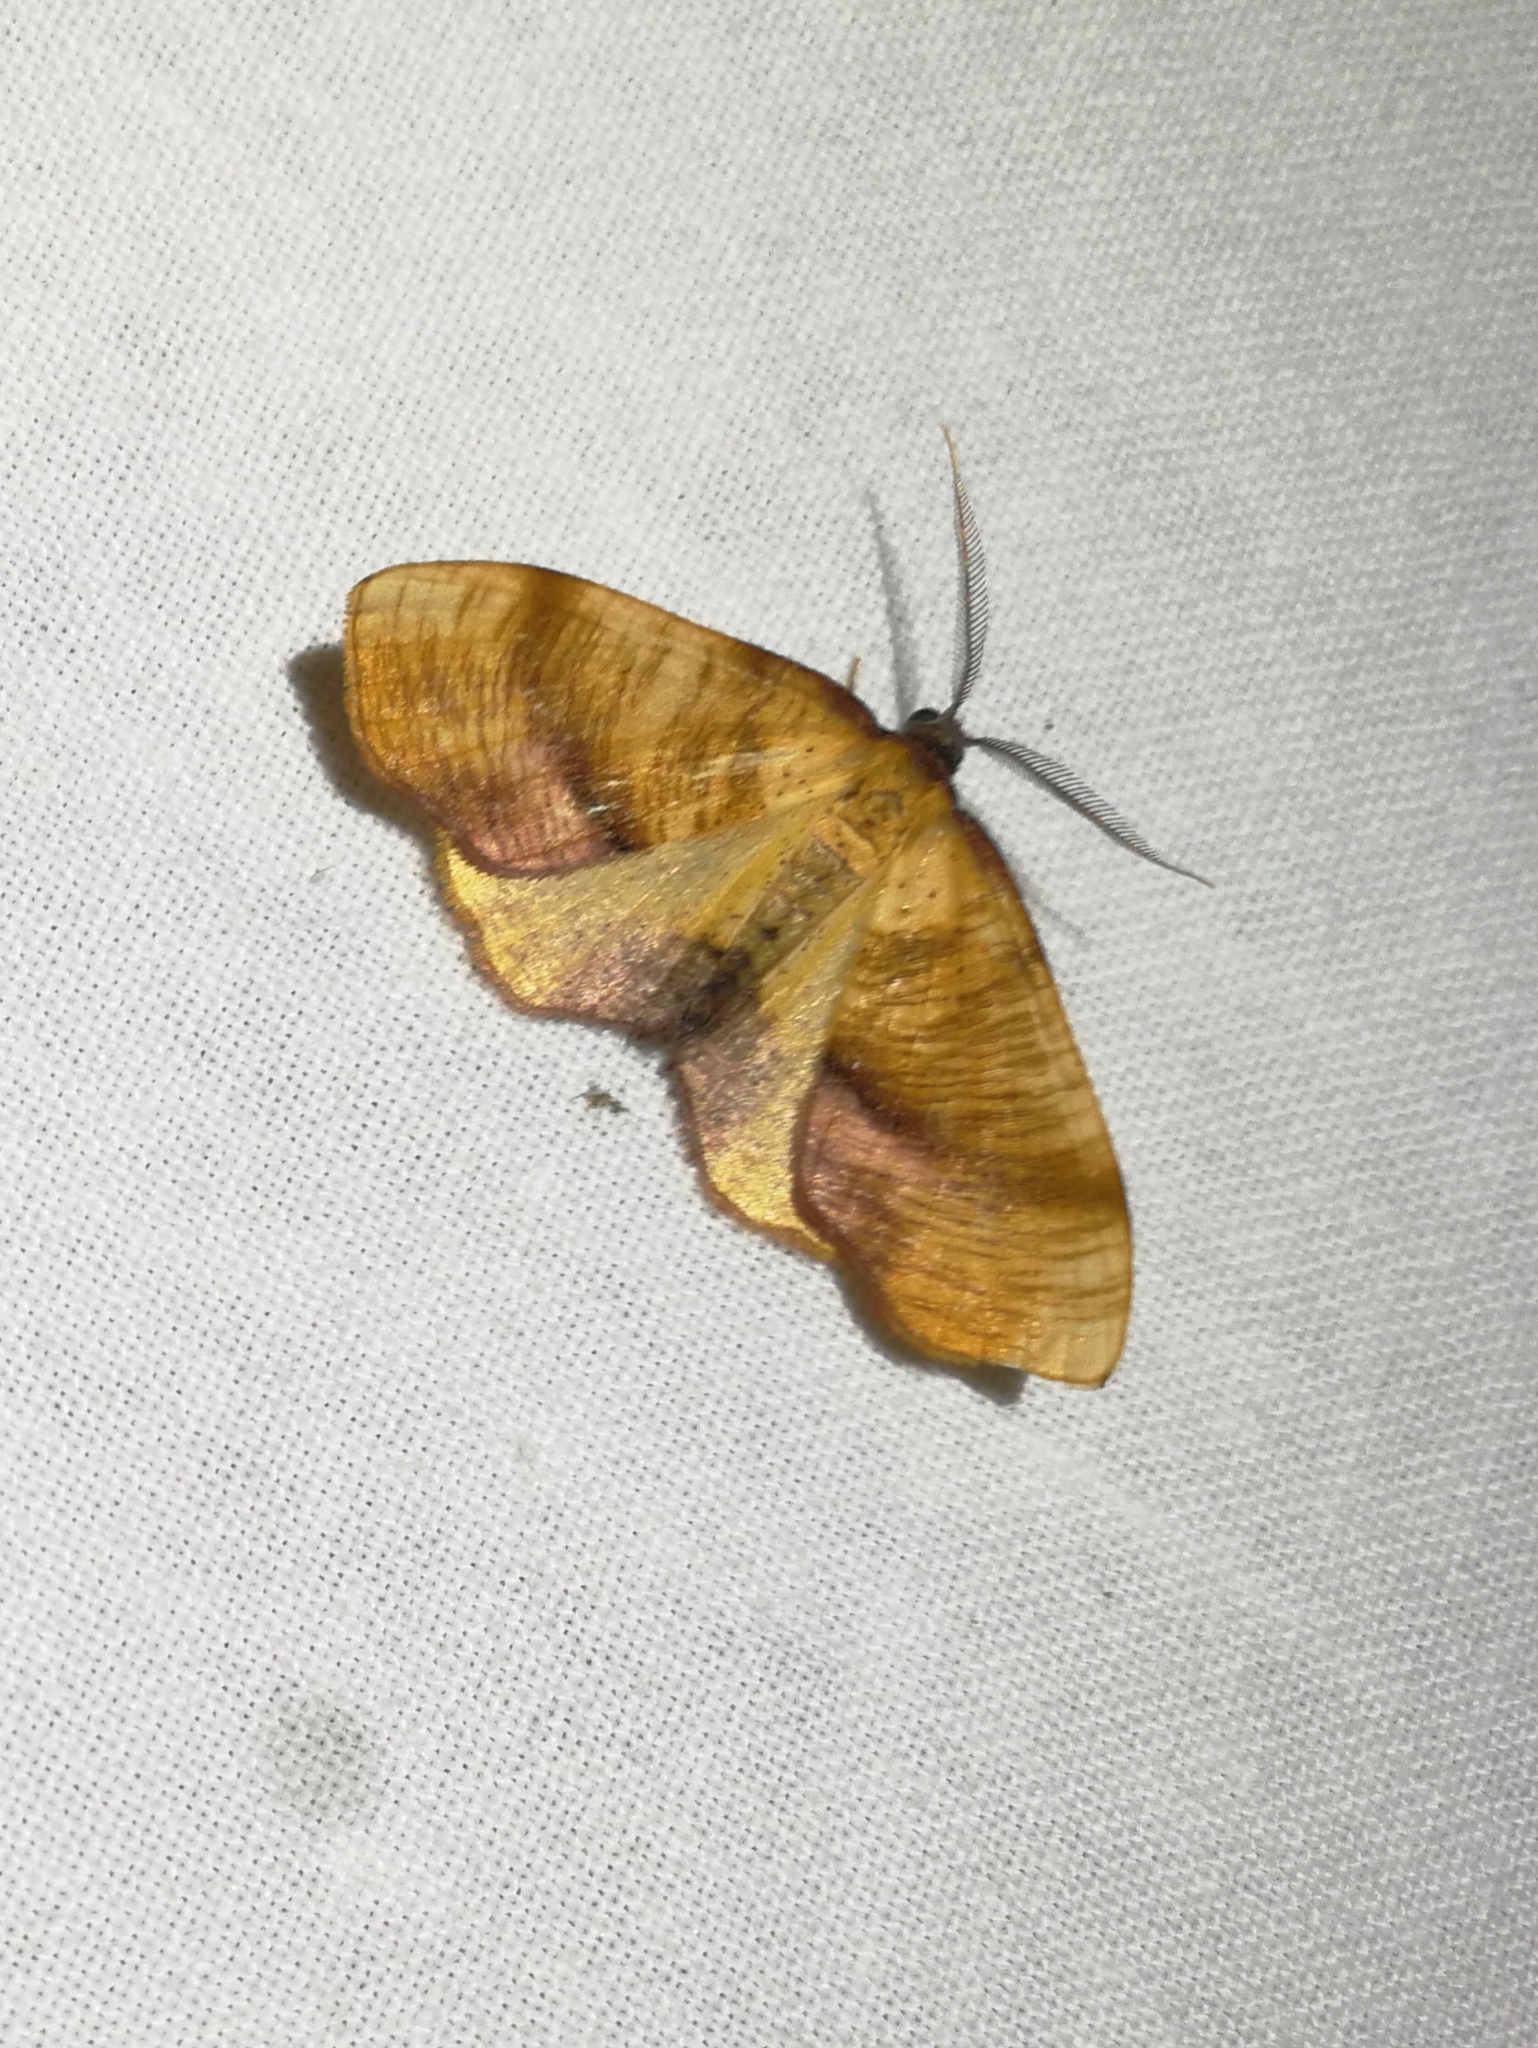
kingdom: Animalia
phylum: Arthropoda
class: Insecta
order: Lepidoptera
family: Geometridae
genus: Plagodis
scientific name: Plagodis dolabraria
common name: Scorched wing
